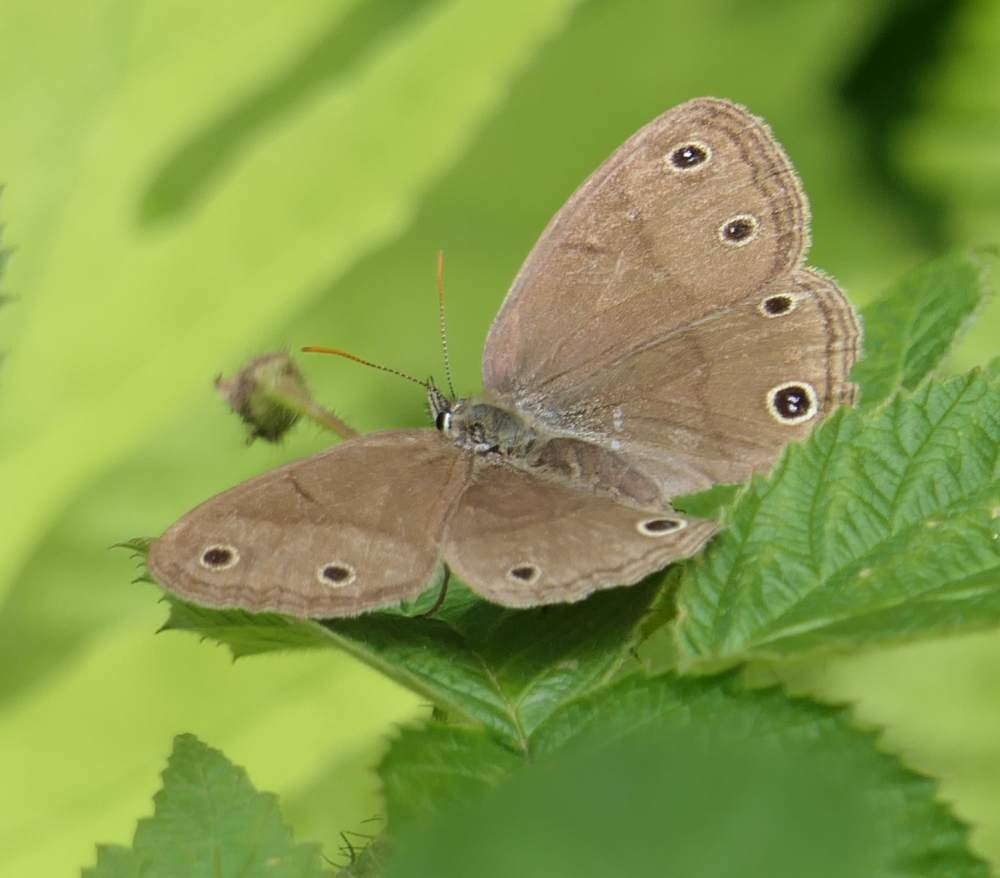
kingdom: Animalia
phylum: Arthropoda
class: Insecta
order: Lepidoptera
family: Nymphalidae
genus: Euptychia
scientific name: Euptychia cymela
